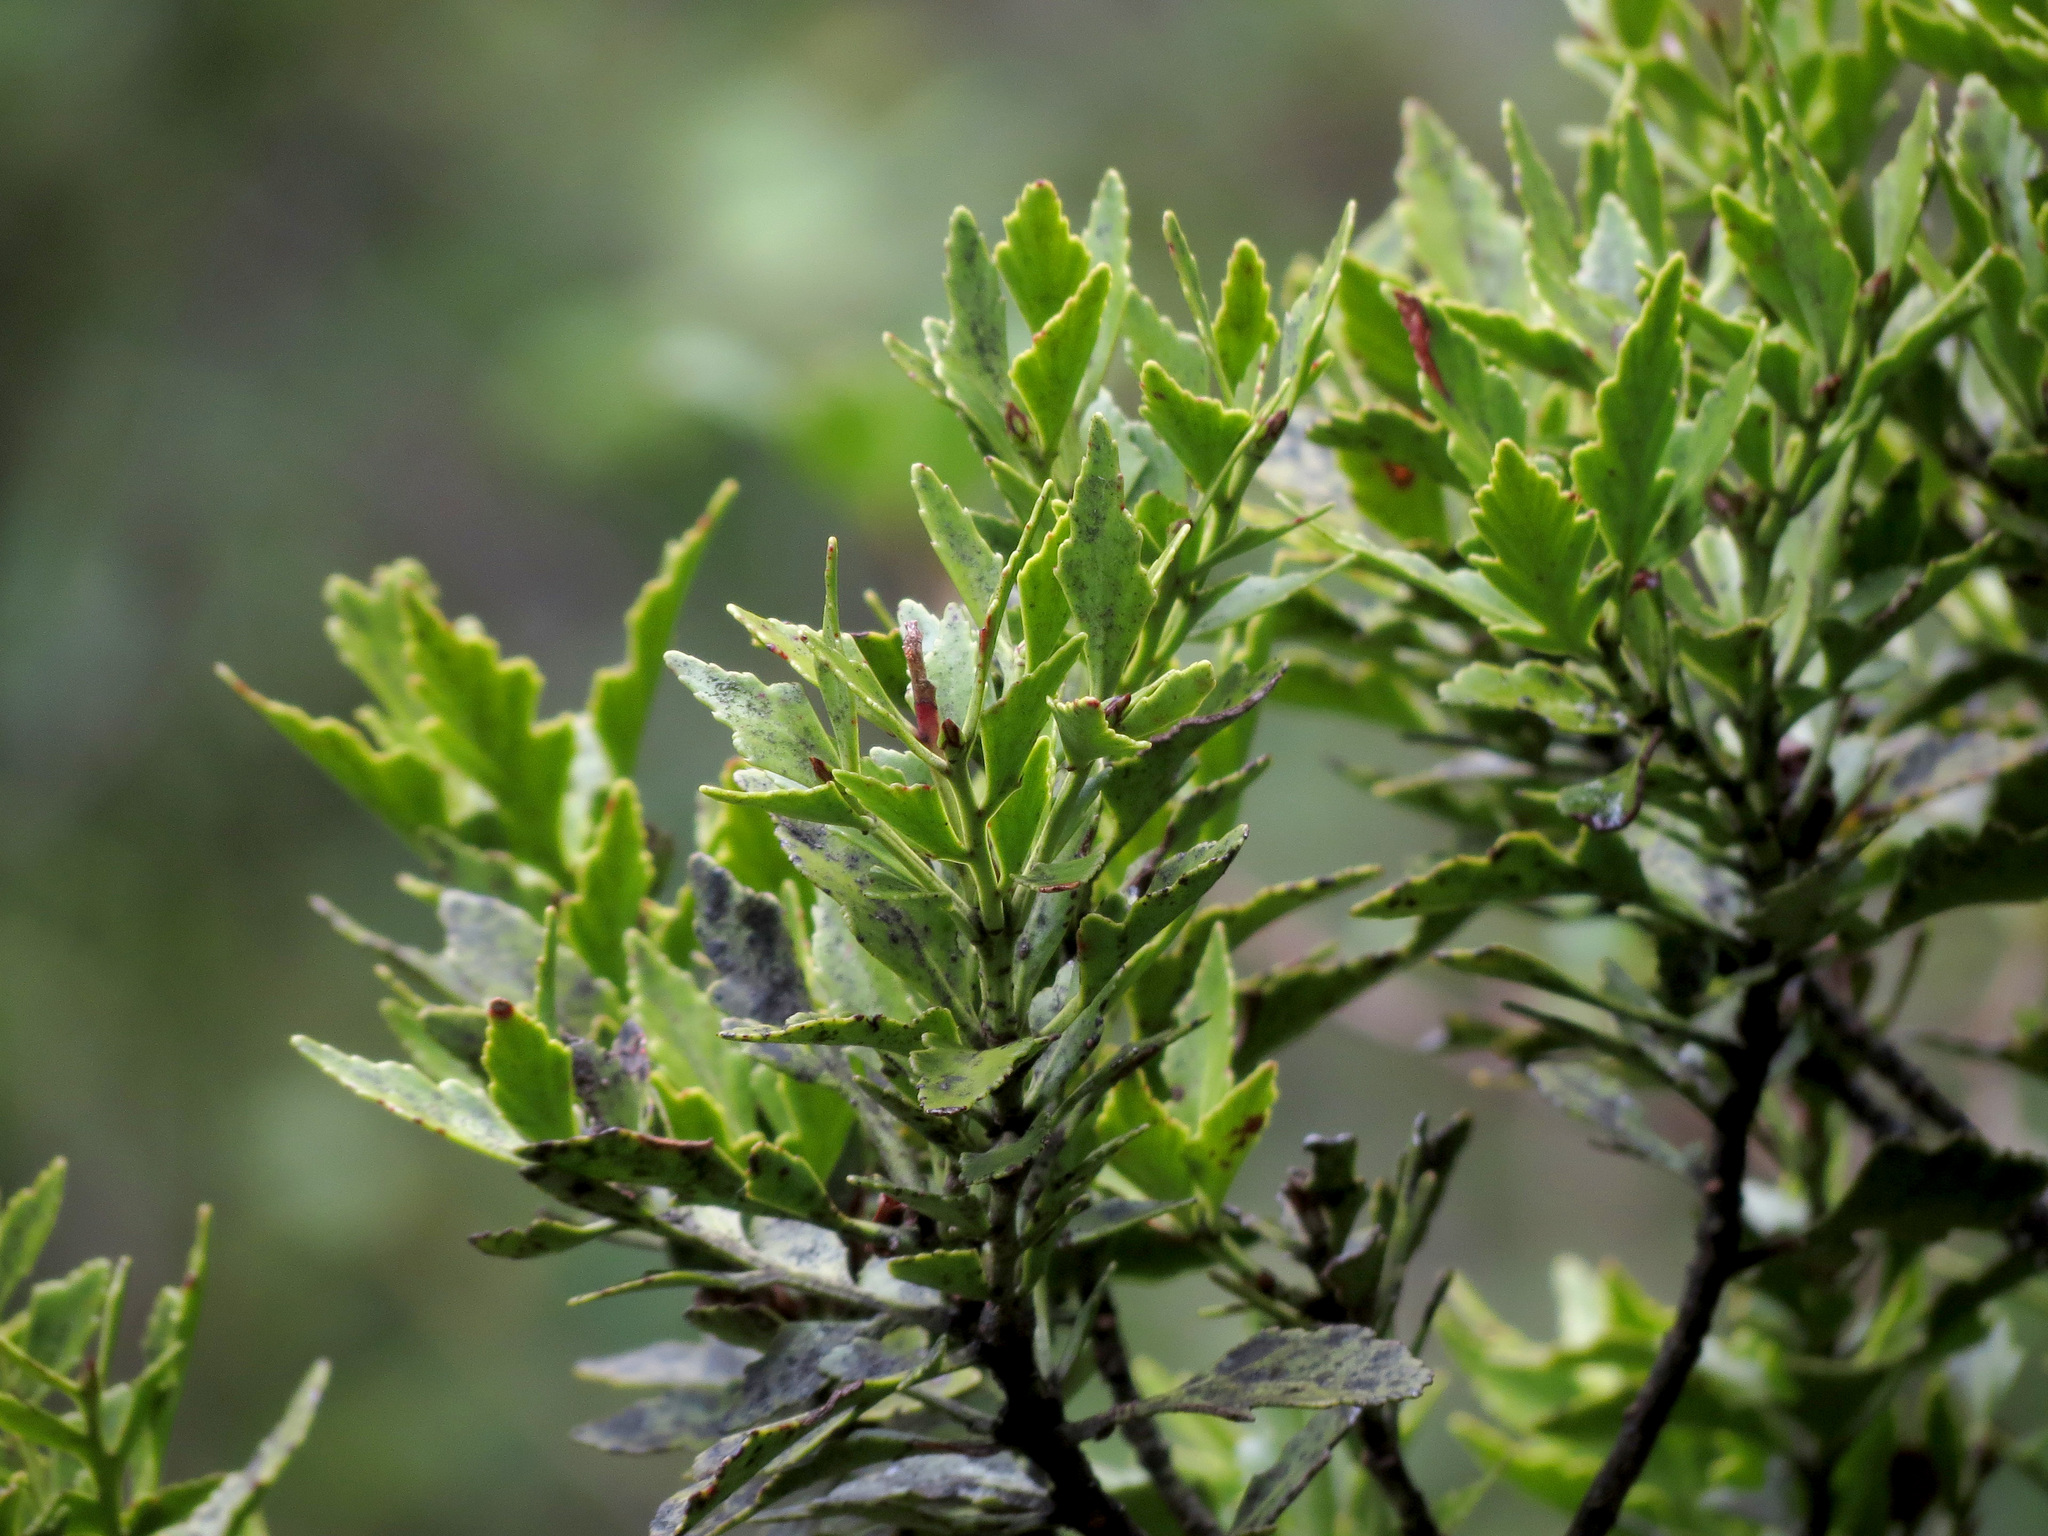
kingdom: Plantae
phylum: Tracheophyta
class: Pinopsida
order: Pinales
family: Phyllocladaceae
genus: Phyllocladus
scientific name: Phyllocladus trichomanoides
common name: Celery pine
